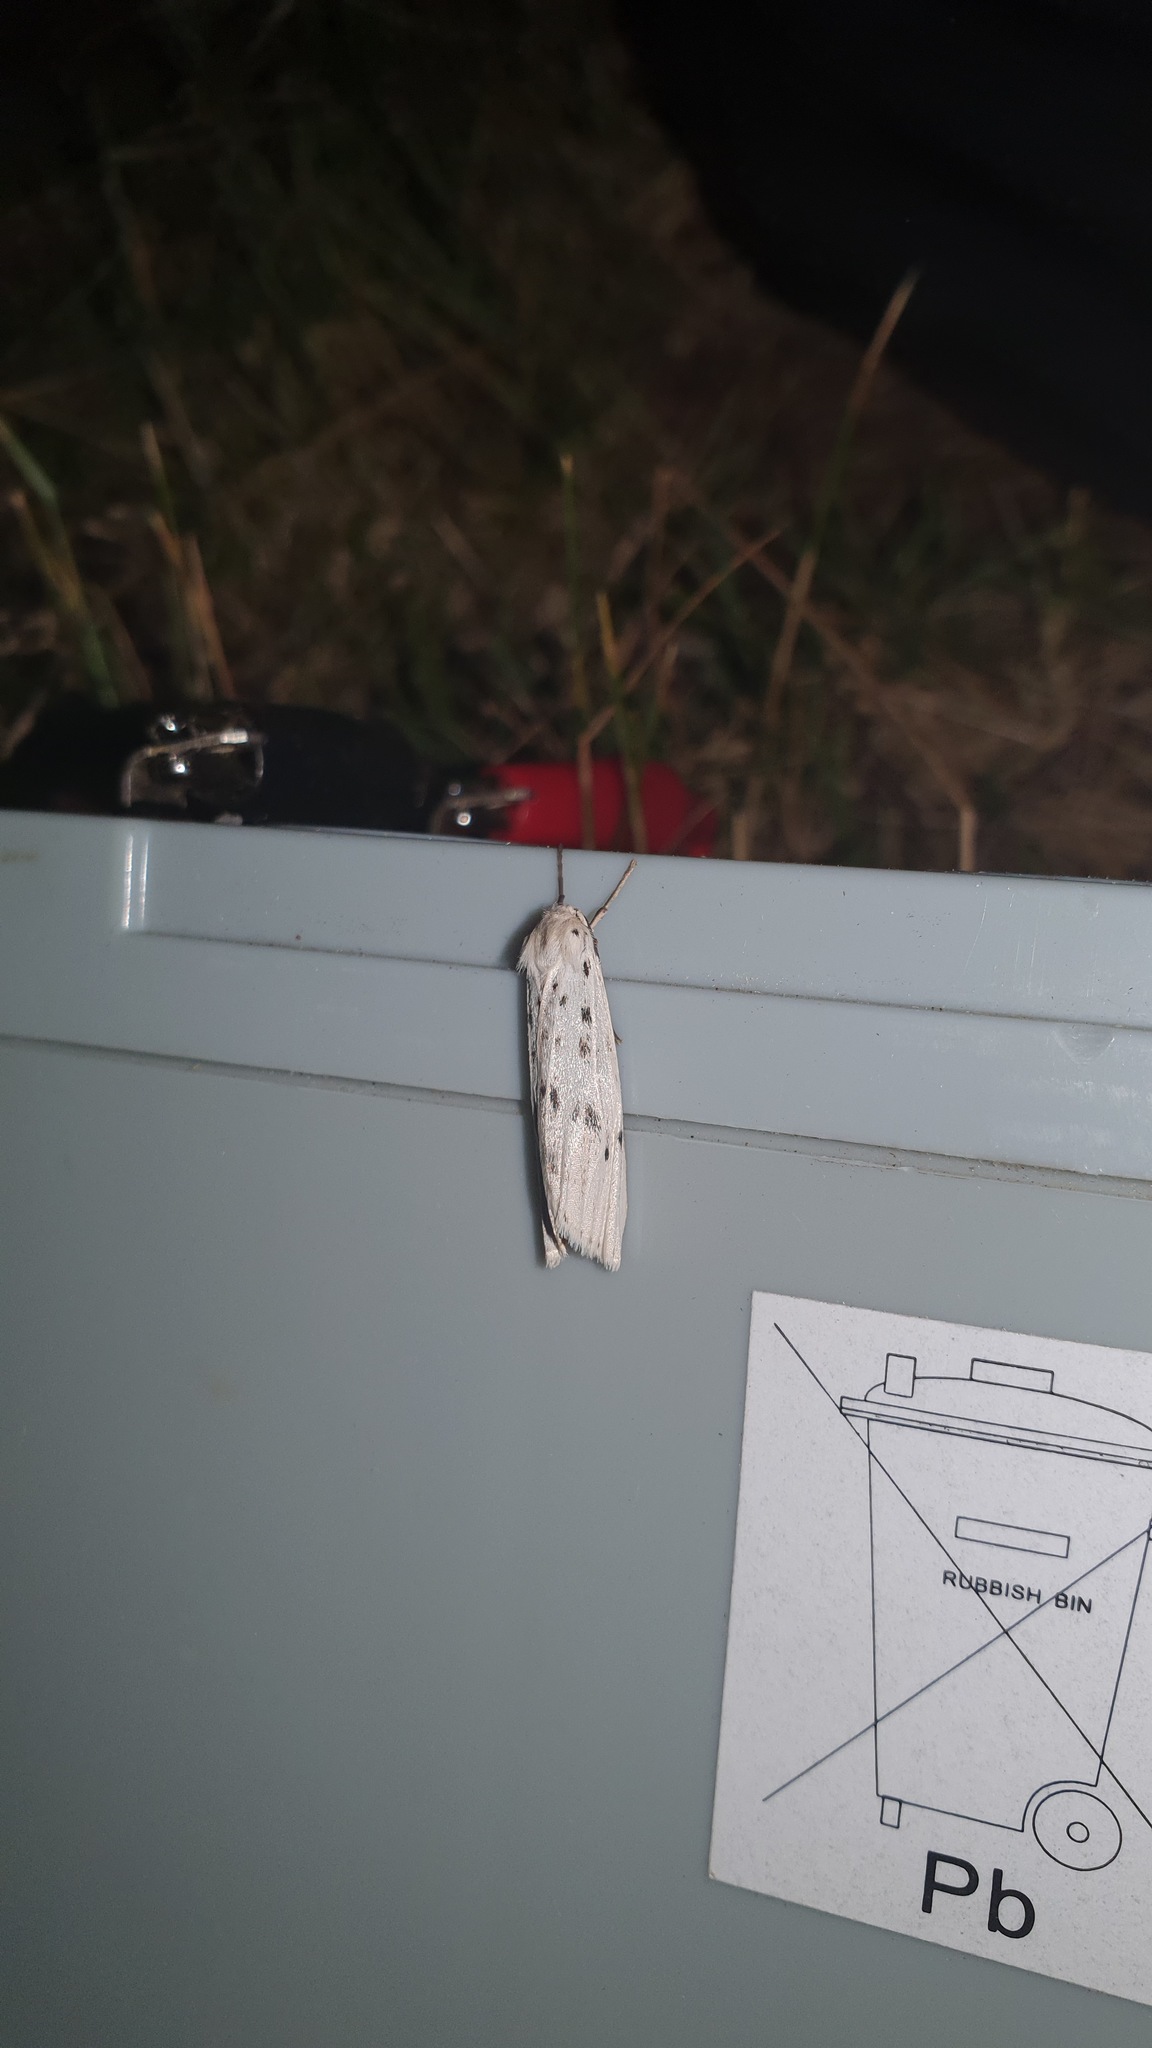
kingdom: Animalia
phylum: Arthropoda
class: Insecta
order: Lepidoptera
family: Erebidae
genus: Coscinia
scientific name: Coscinia cribraria
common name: Speckled footman
